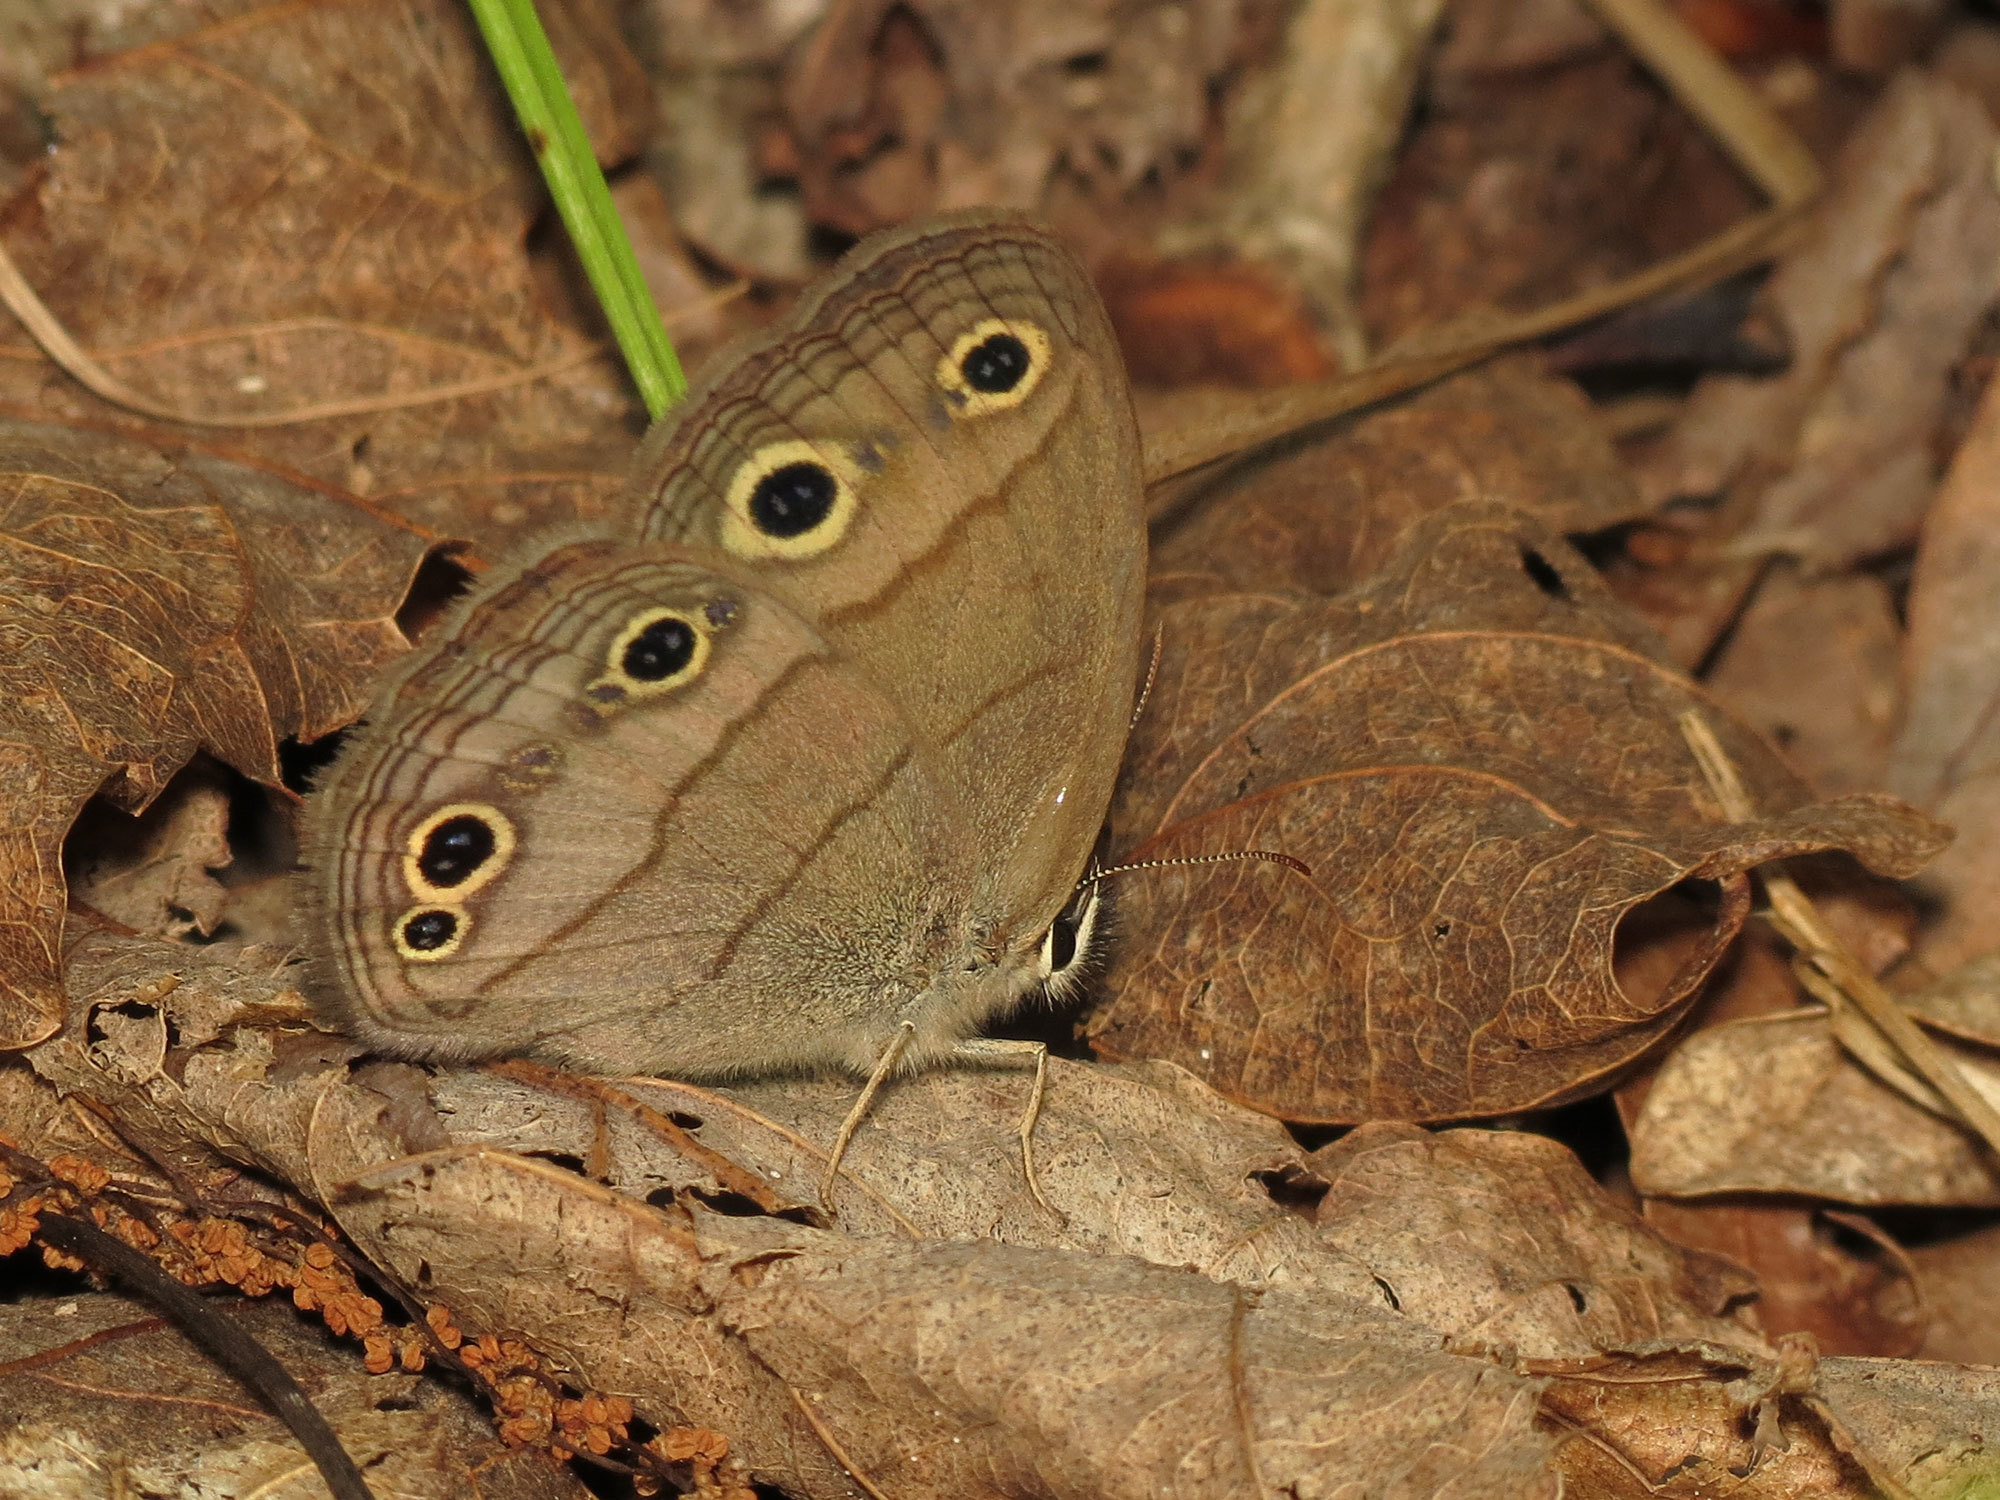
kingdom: Animalia
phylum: Arthropoda
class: Insecta
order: Lepidoptera
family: Nymphalidae
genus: Euptychia
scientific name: Euptychia cymela
